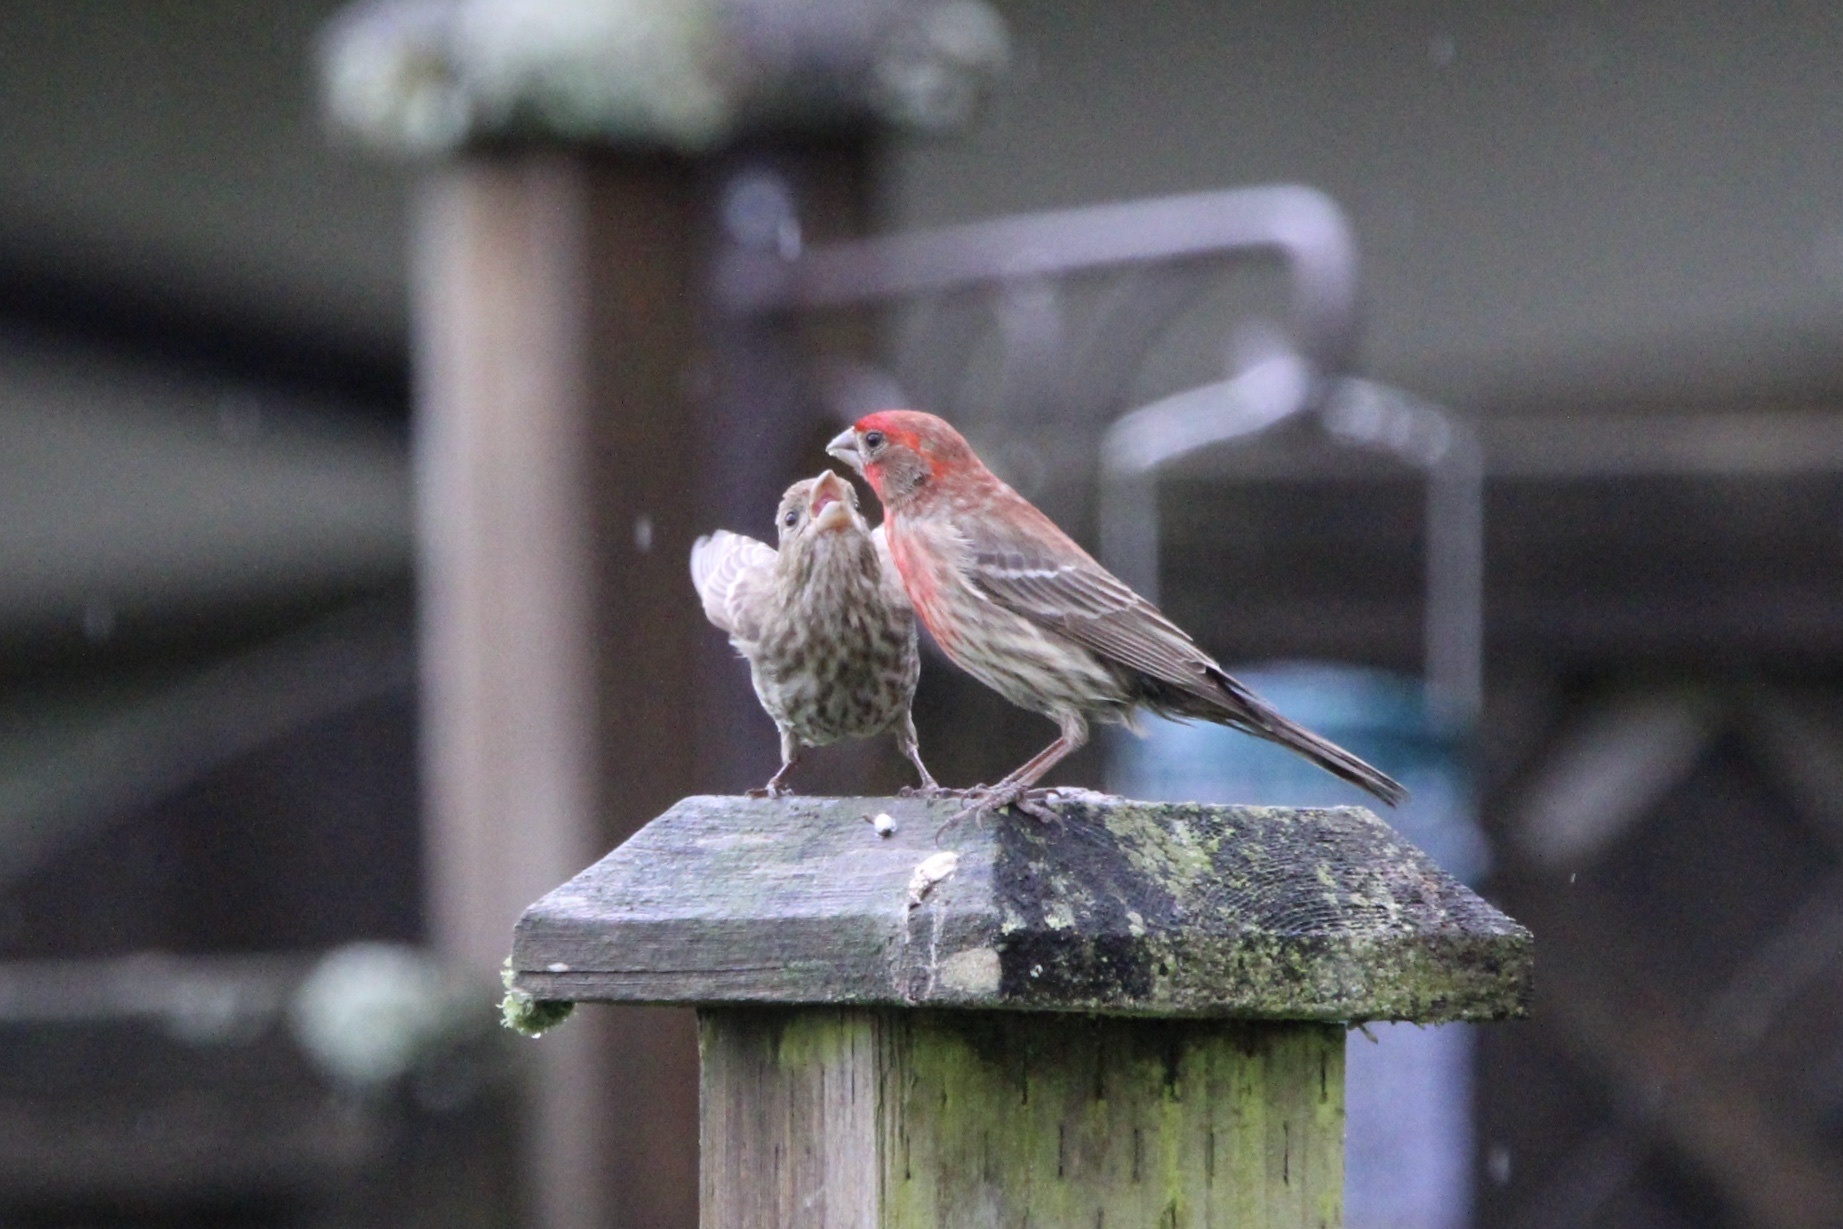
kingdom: Animalia
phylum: Chordata
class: Aves
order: Passeriformes
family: Fringillidae
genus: Haemorhous
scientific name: Haemorhous mexicanus
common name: House finch
